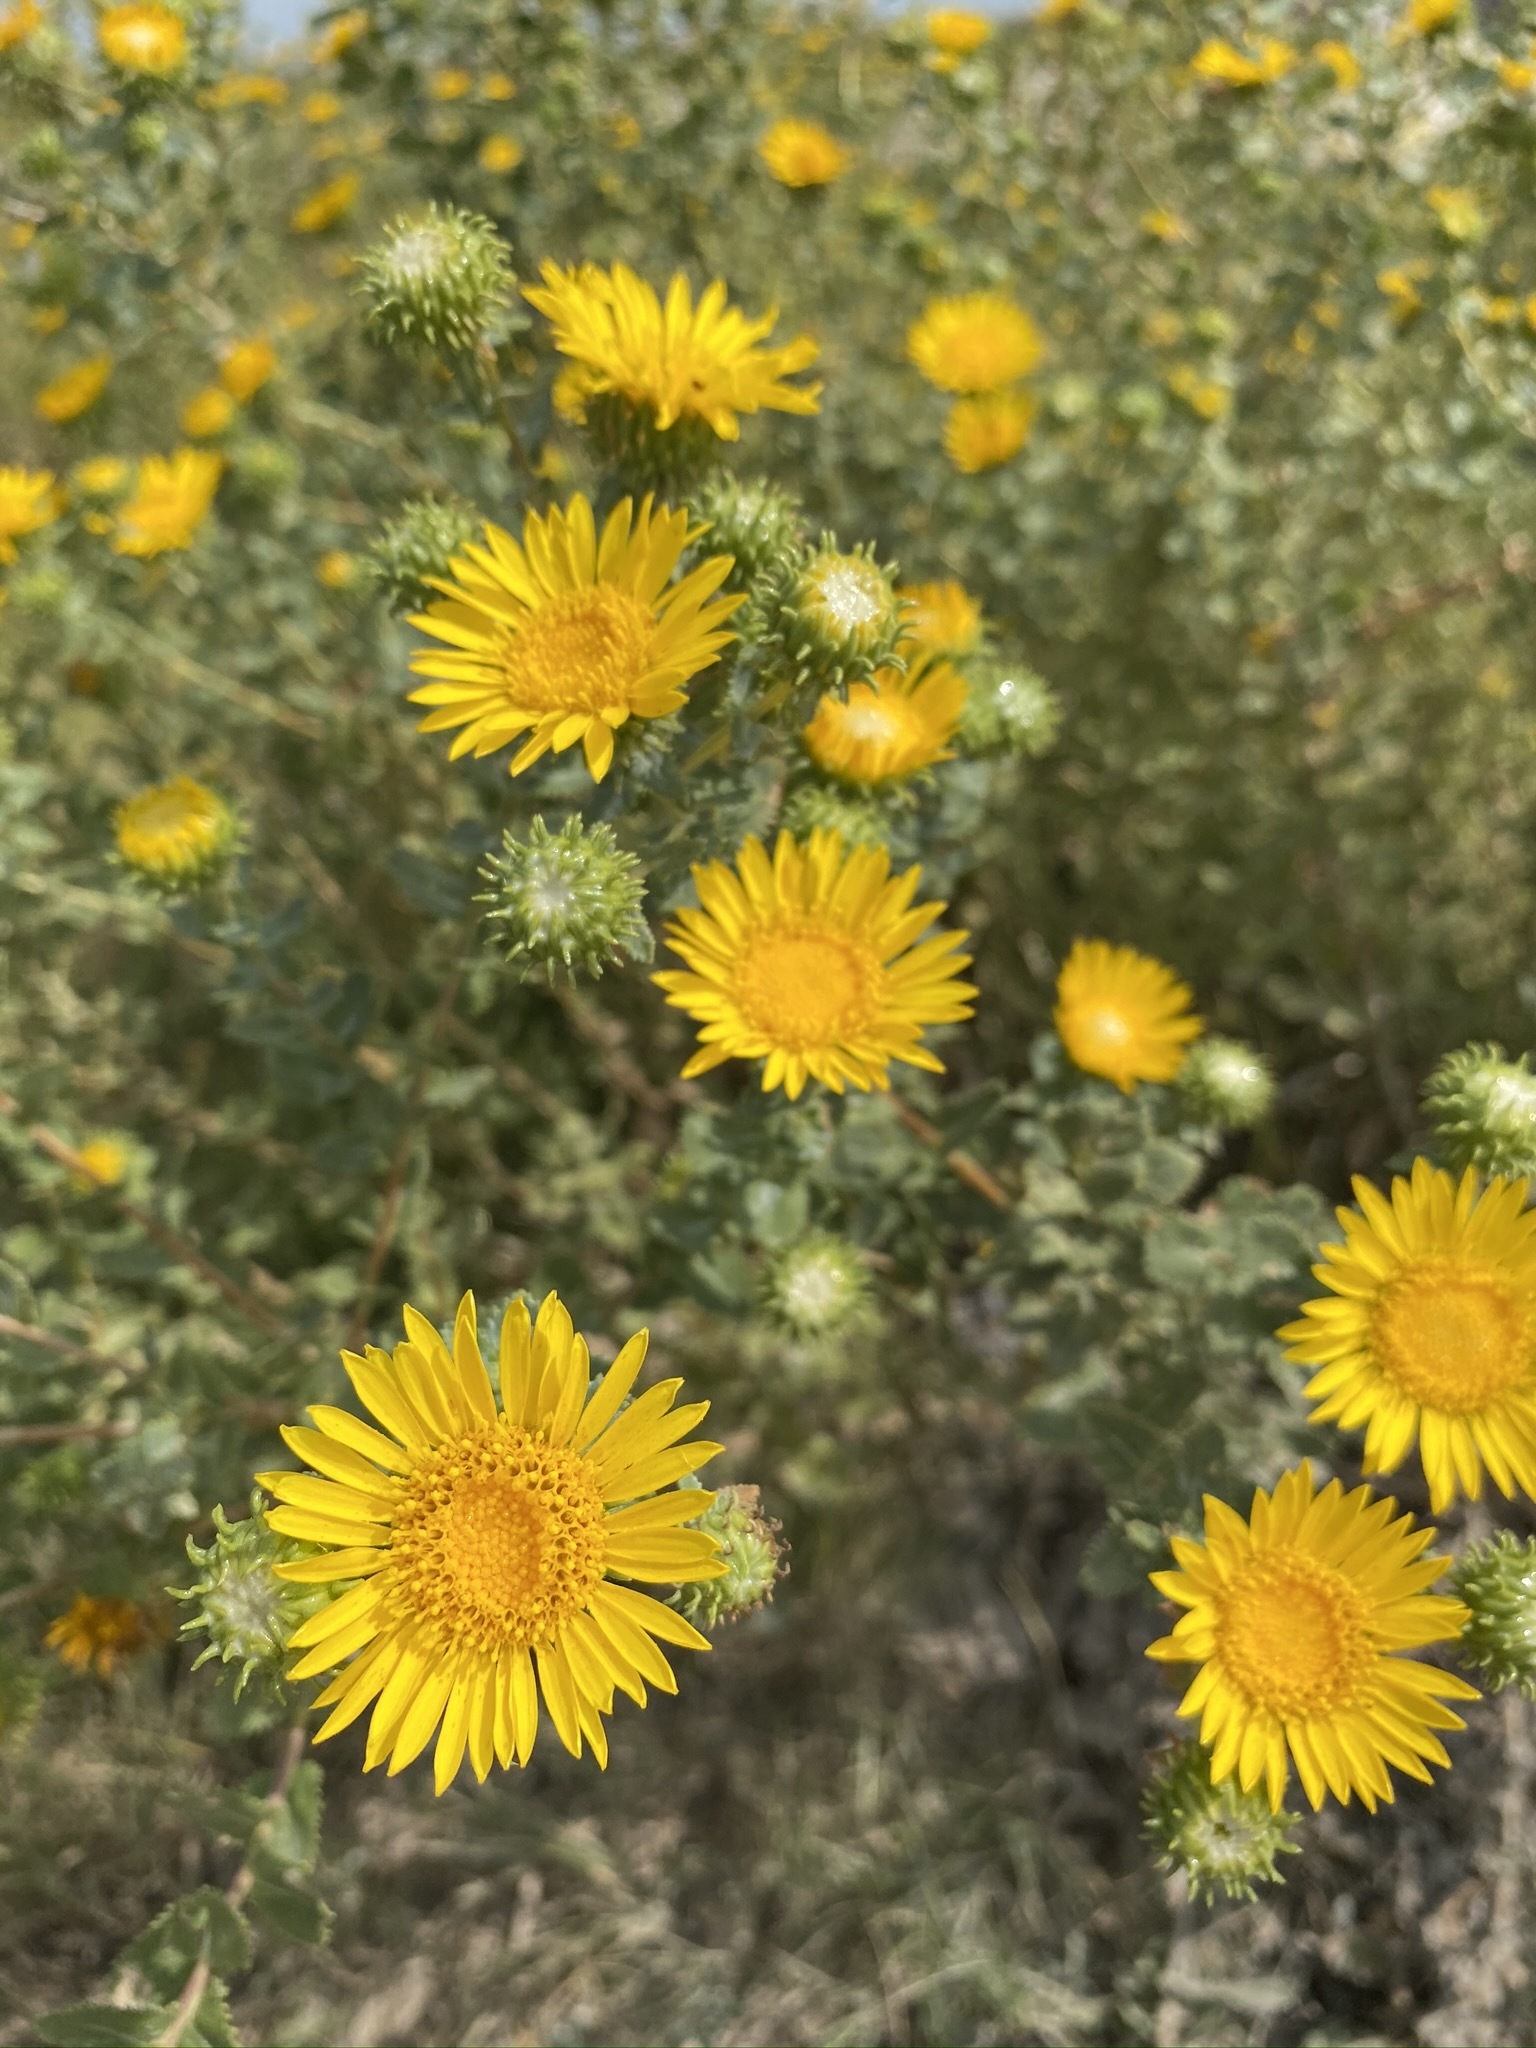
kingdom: Plantae
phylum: Tracheophyta
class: Magnoliopsida
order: Asterales
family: Asteraceae
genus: Grindelia
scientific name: Grindelia squarrosa
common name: Curly-cup gumweed
